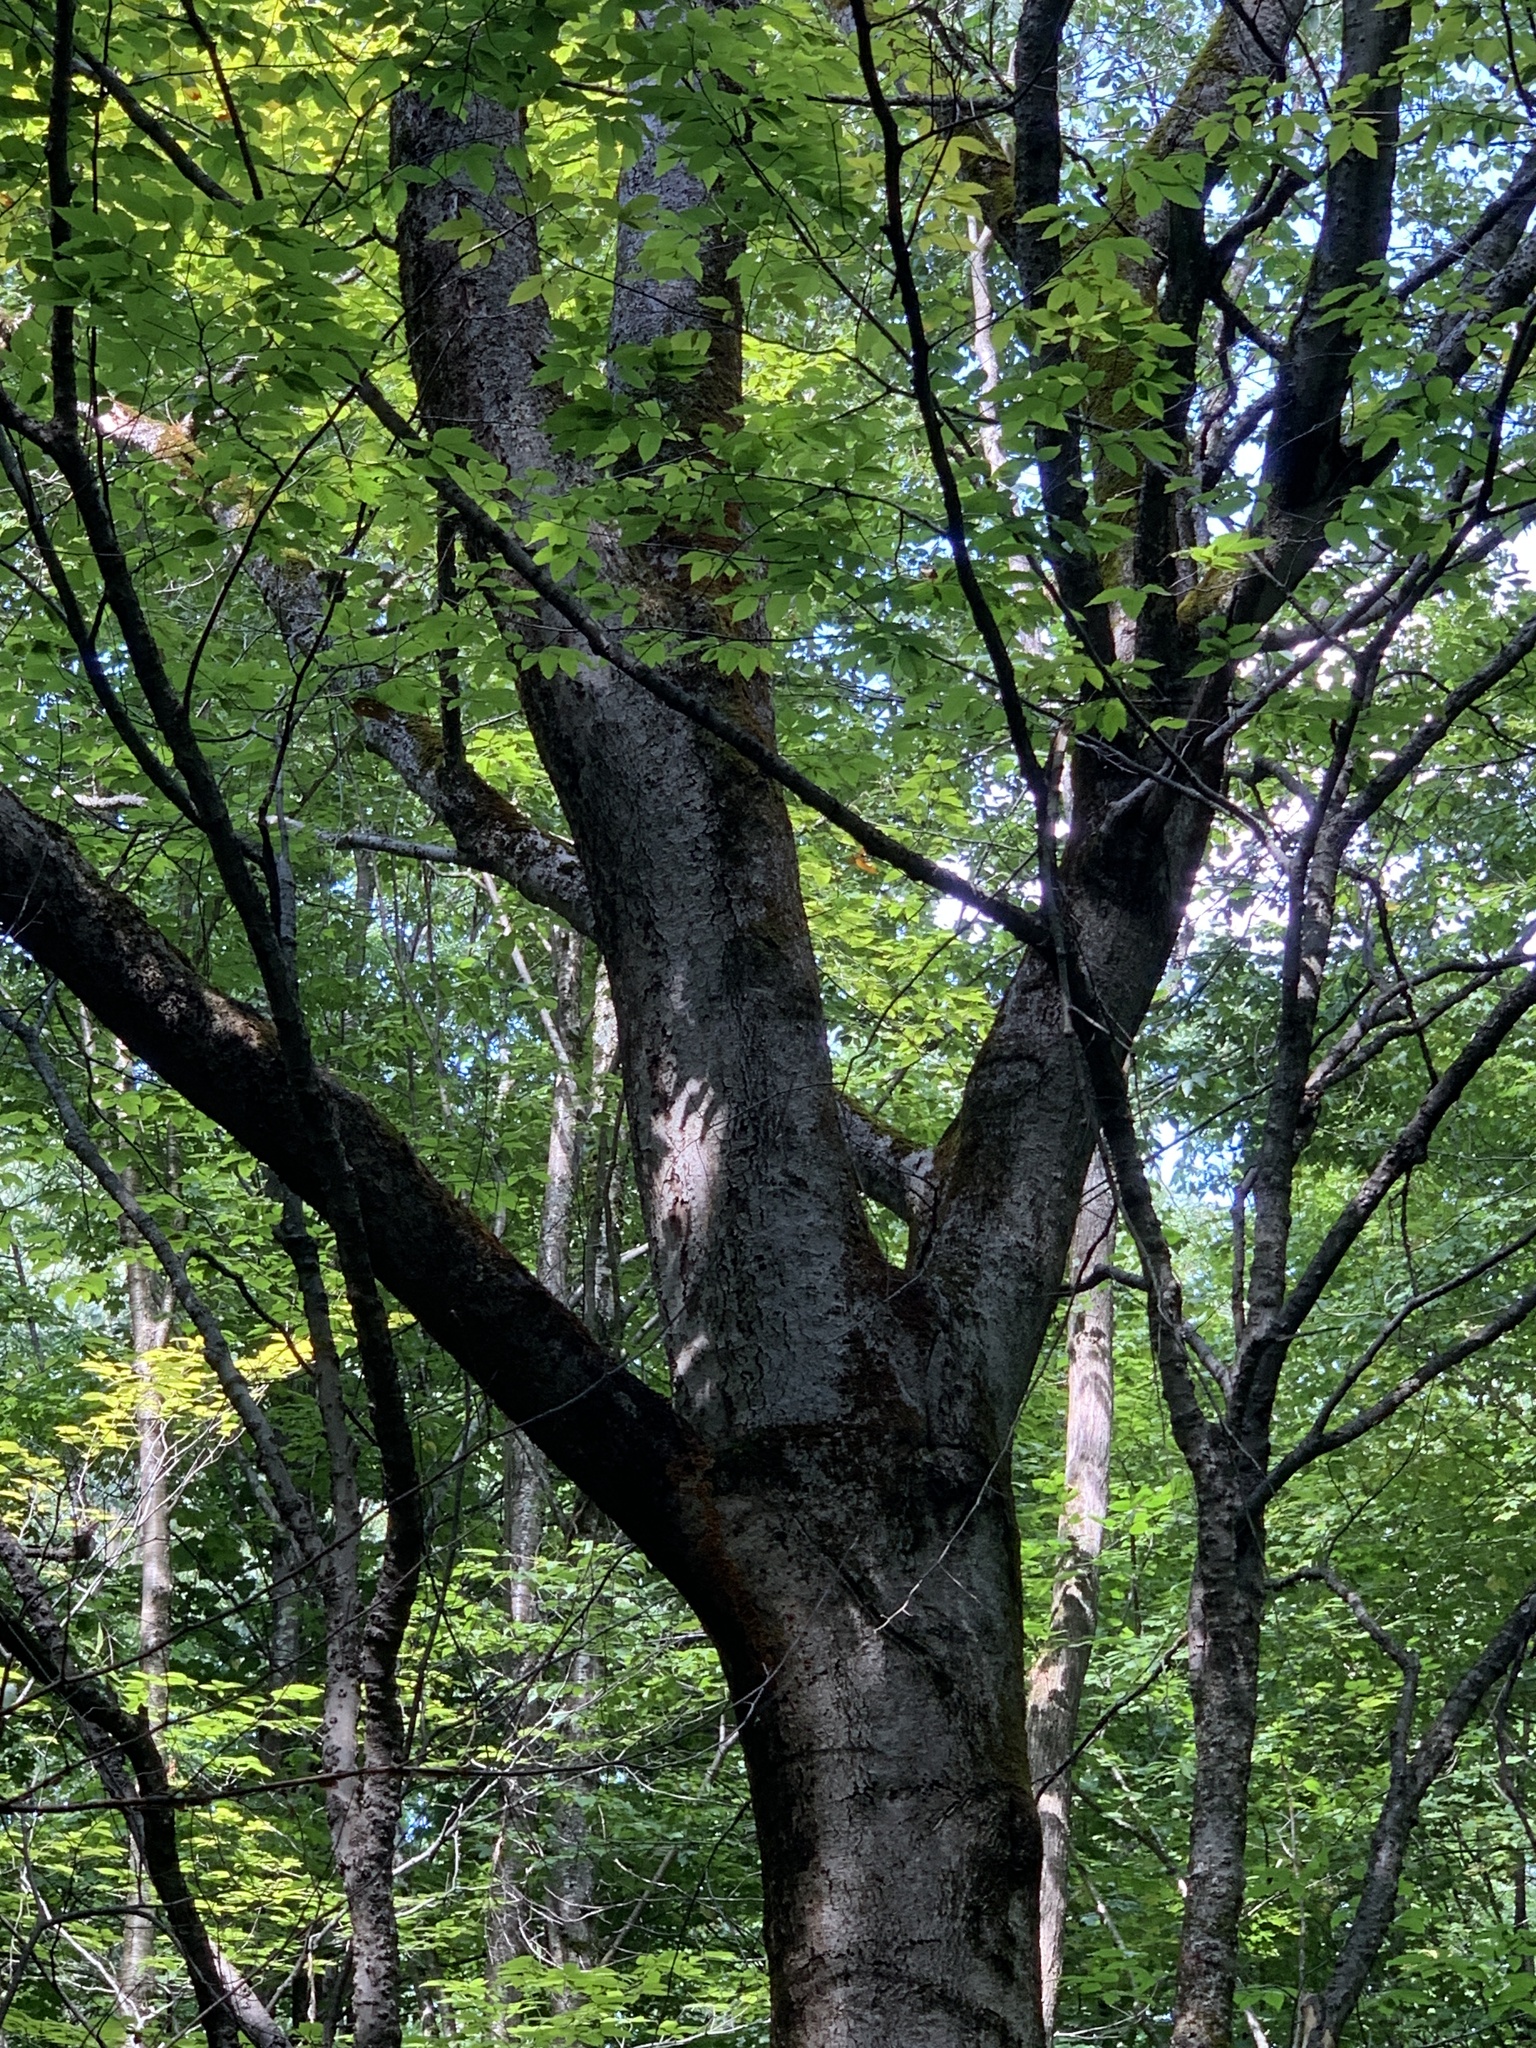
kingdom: Plantae
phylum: Tracheophyta
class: Magnoliopsida
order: Fagales
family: Fagaceae
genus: Fagus
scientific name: Fagus grandifolia
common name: American beech
